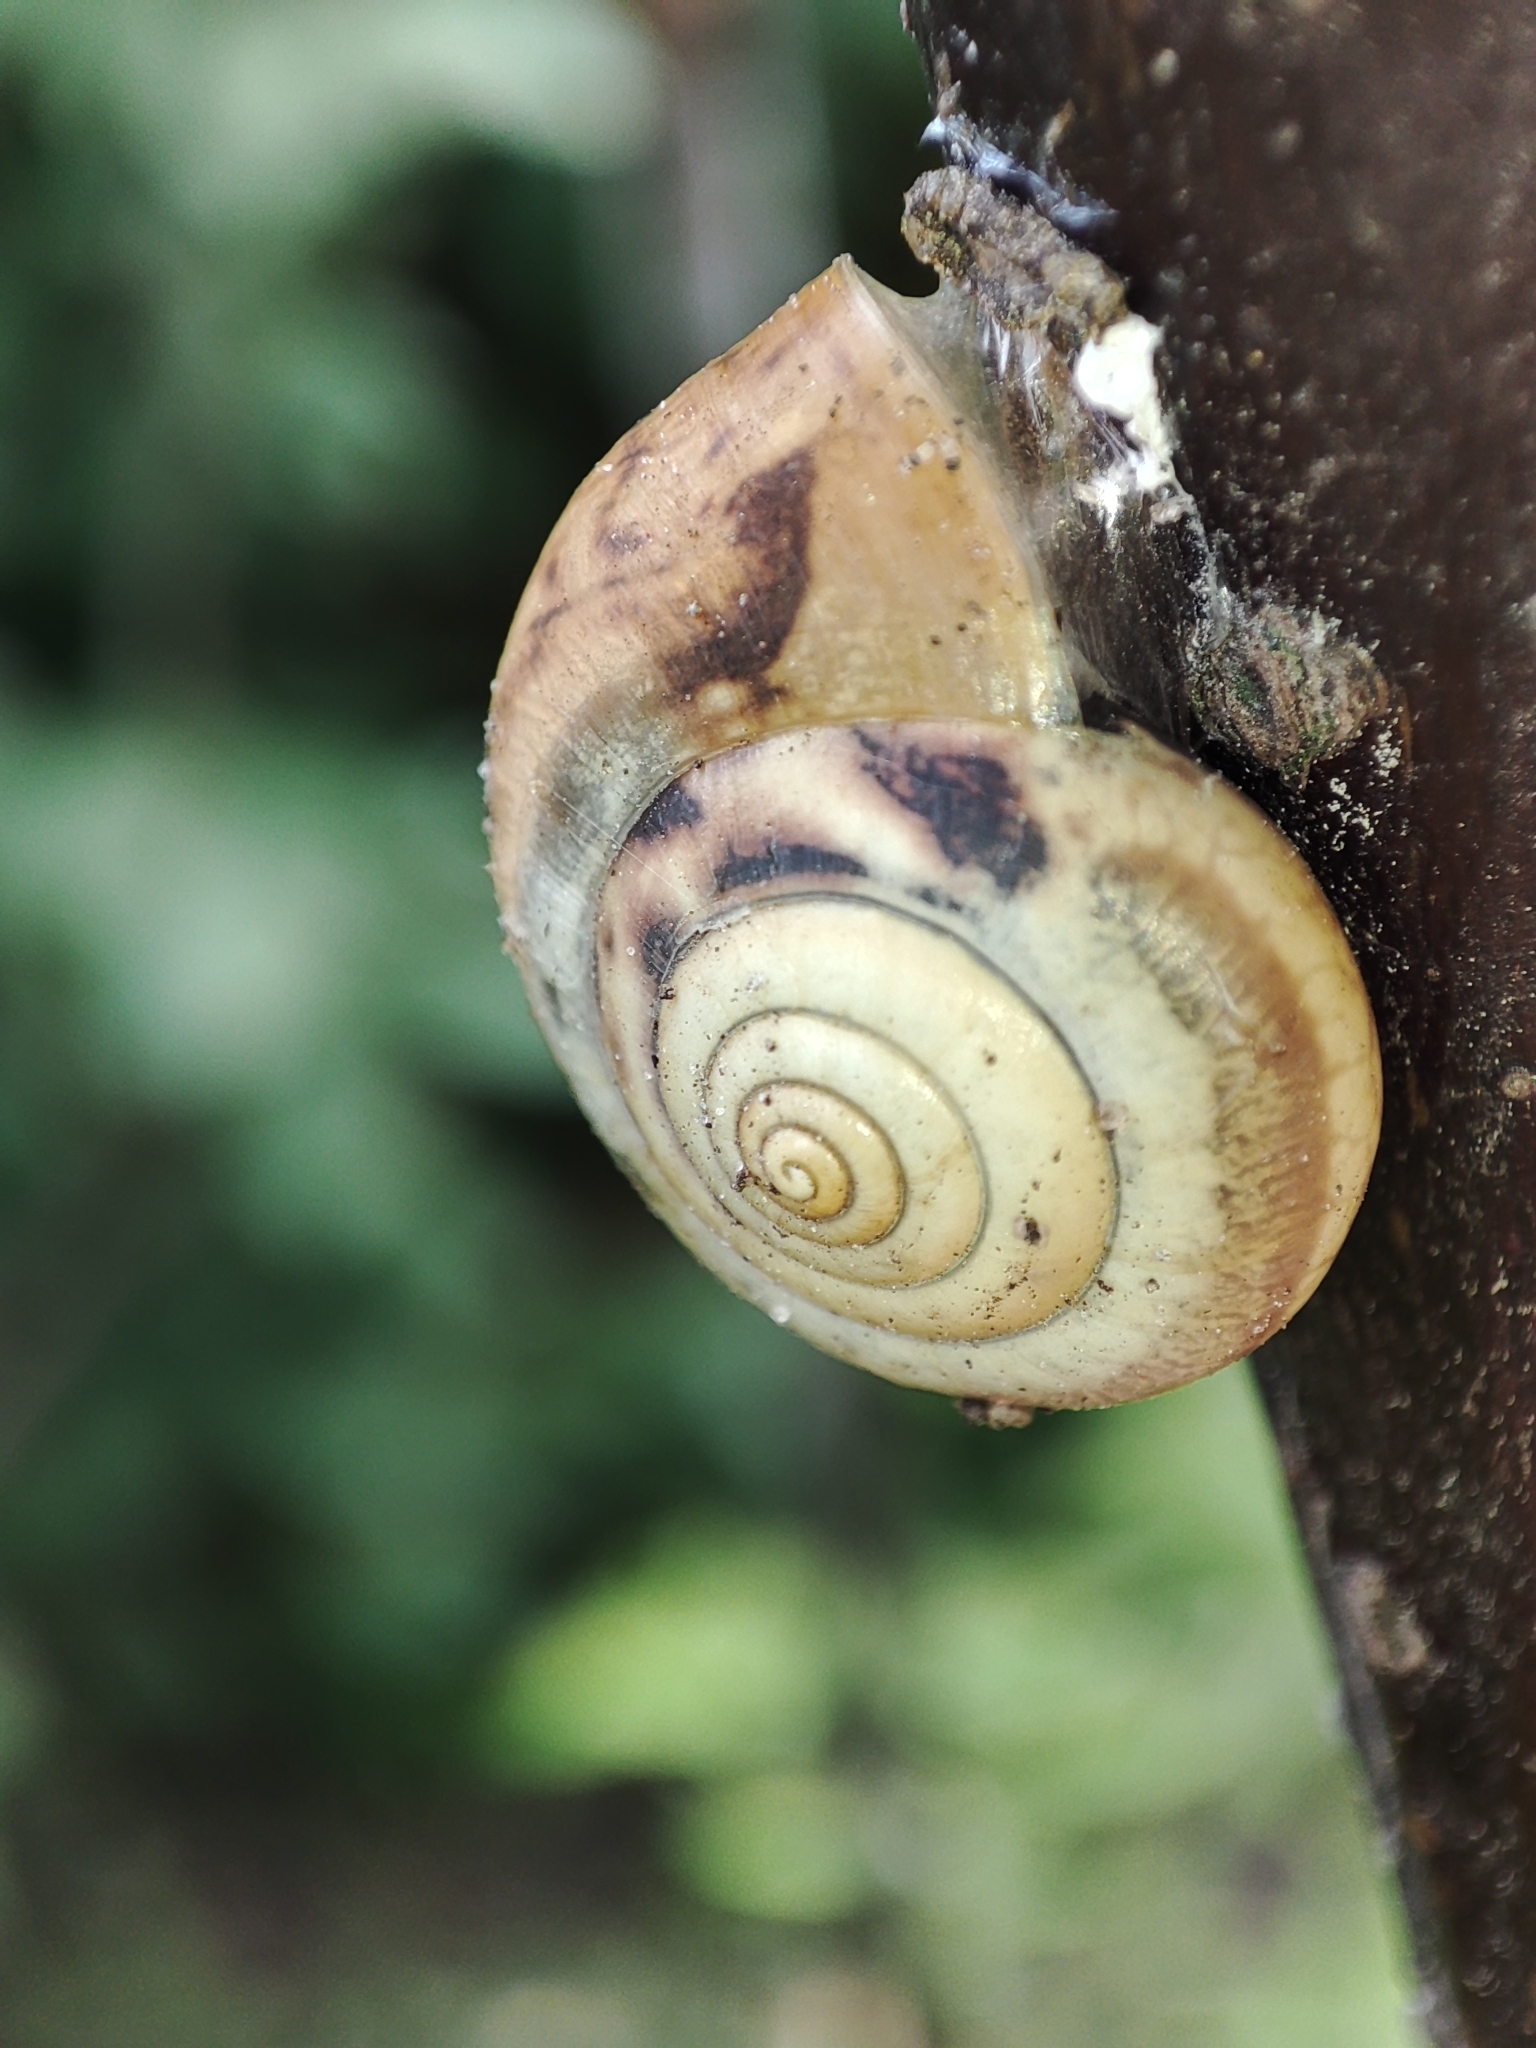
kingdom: Animalia
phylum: Mollusca
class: Gastropoda
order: Stylommatophora
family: Hygromiidae
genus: Monacha
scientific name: Monacha cartusiana
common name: Carthusian snail
